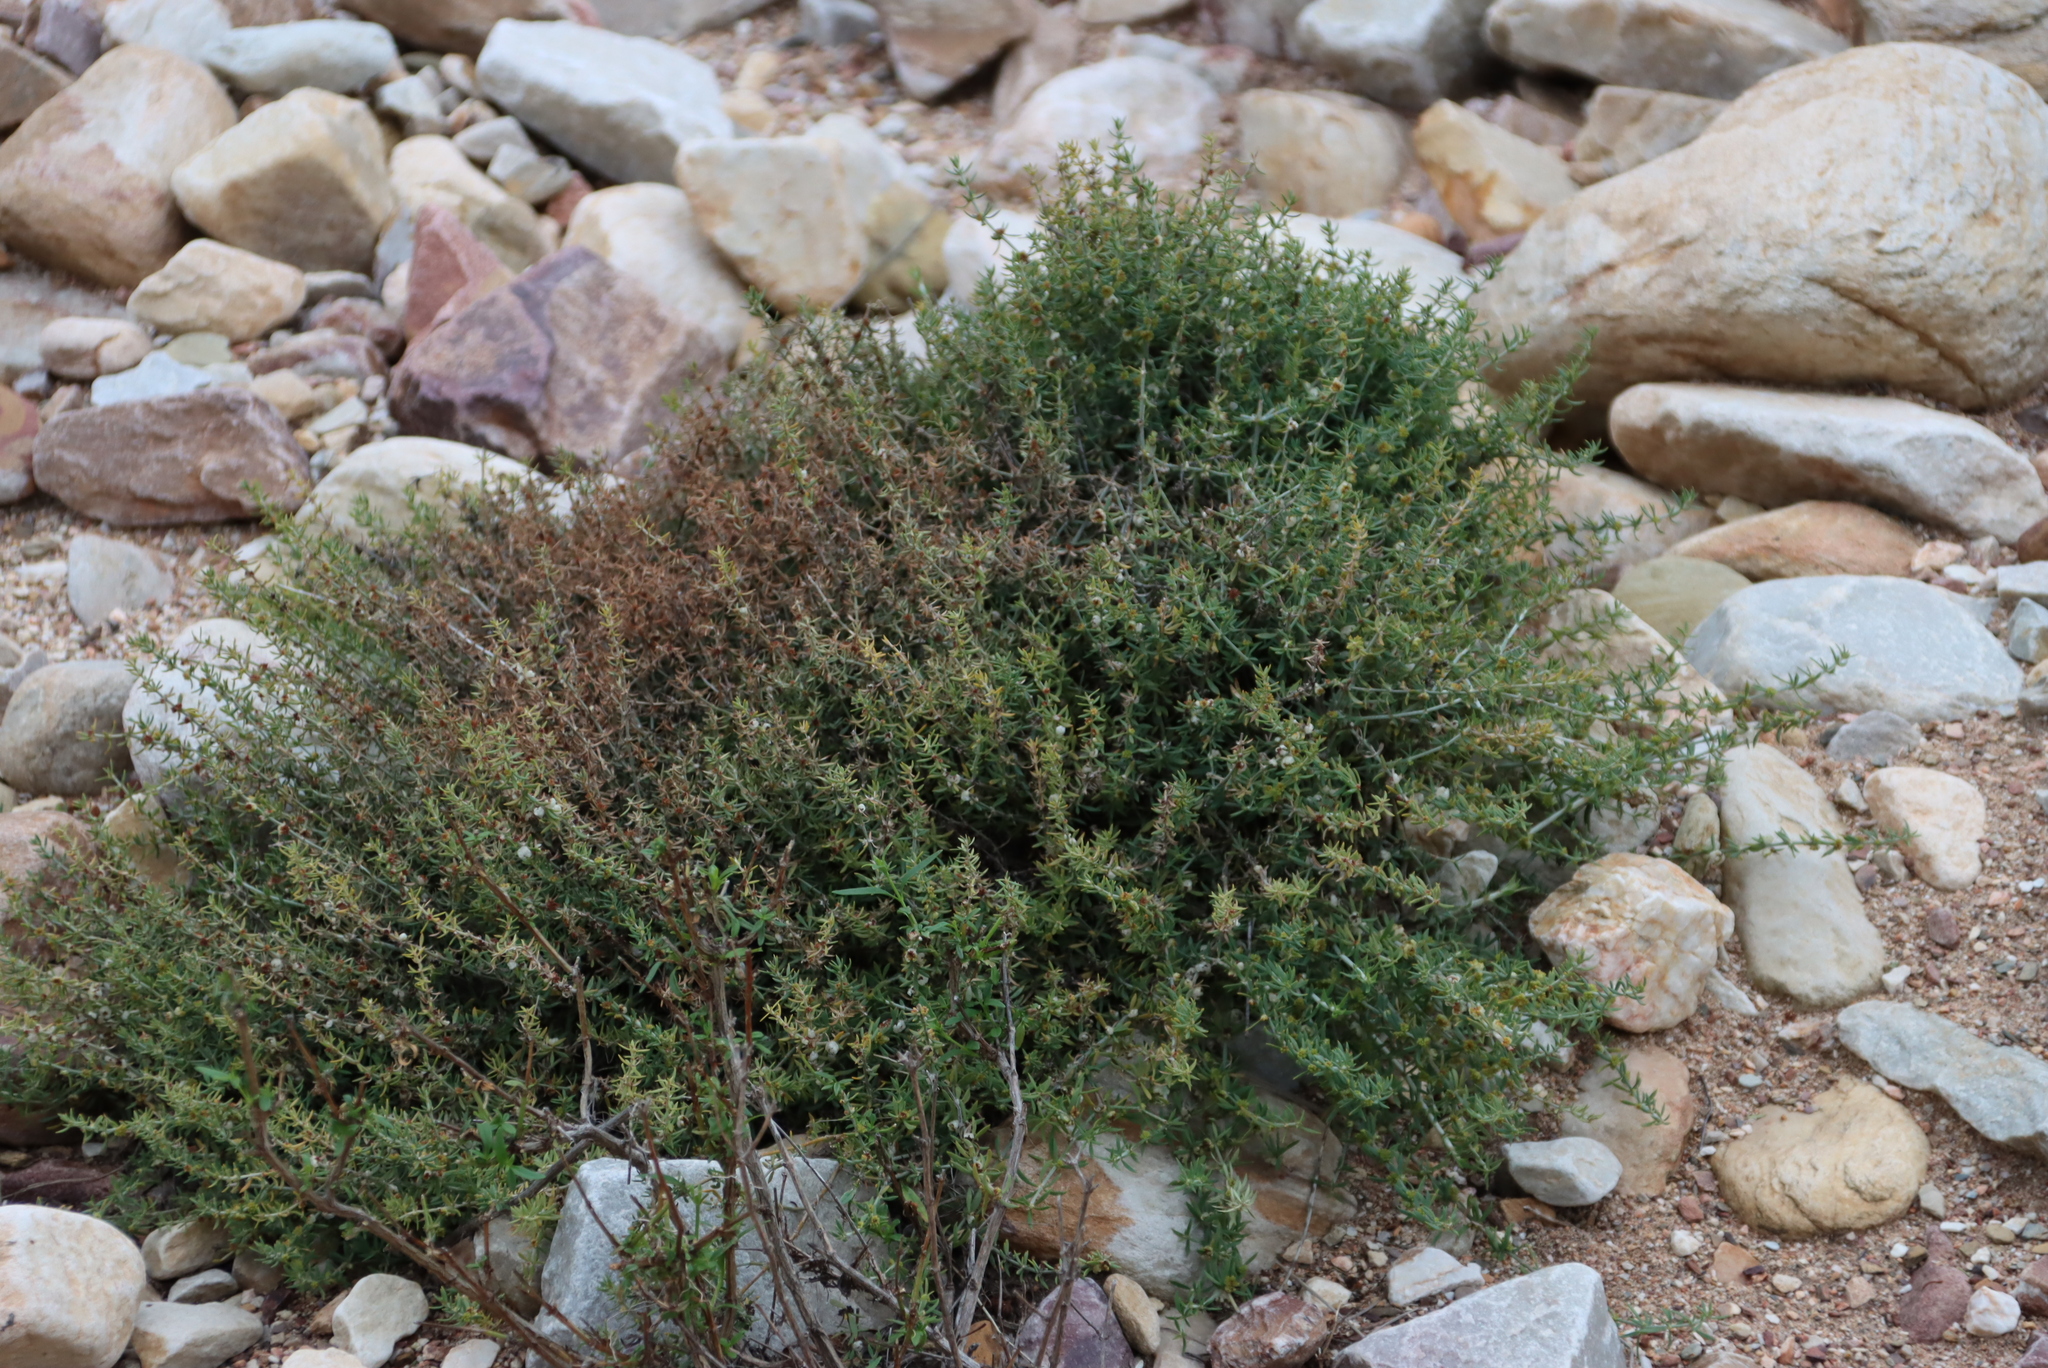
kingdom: Plantae
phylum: Tracheophyta
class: Magnoliopsida
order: Caryophyllales
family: Caryophyllaceae
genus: Pollichia
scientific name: Pollichia campestris
